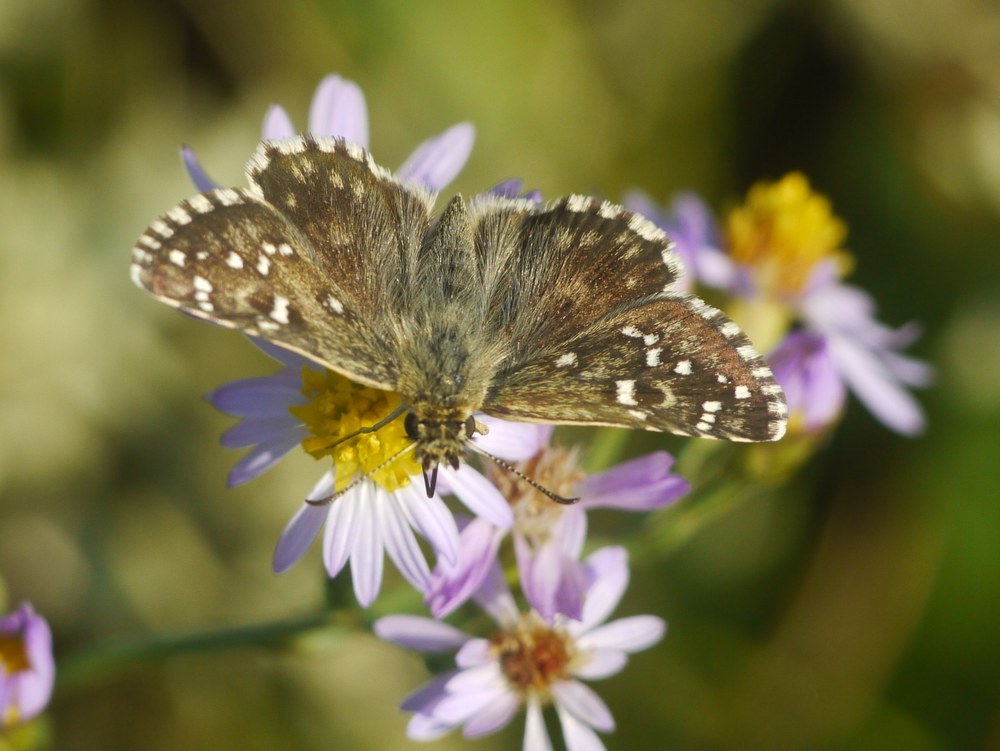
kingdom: Animalia
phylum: Arthropoda
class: Insecta
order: Lepidoptera
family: Hesperiidae
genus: Pyrgus
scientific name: Pyrgus armoricanus
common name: Oberthür's grizzled skipper
